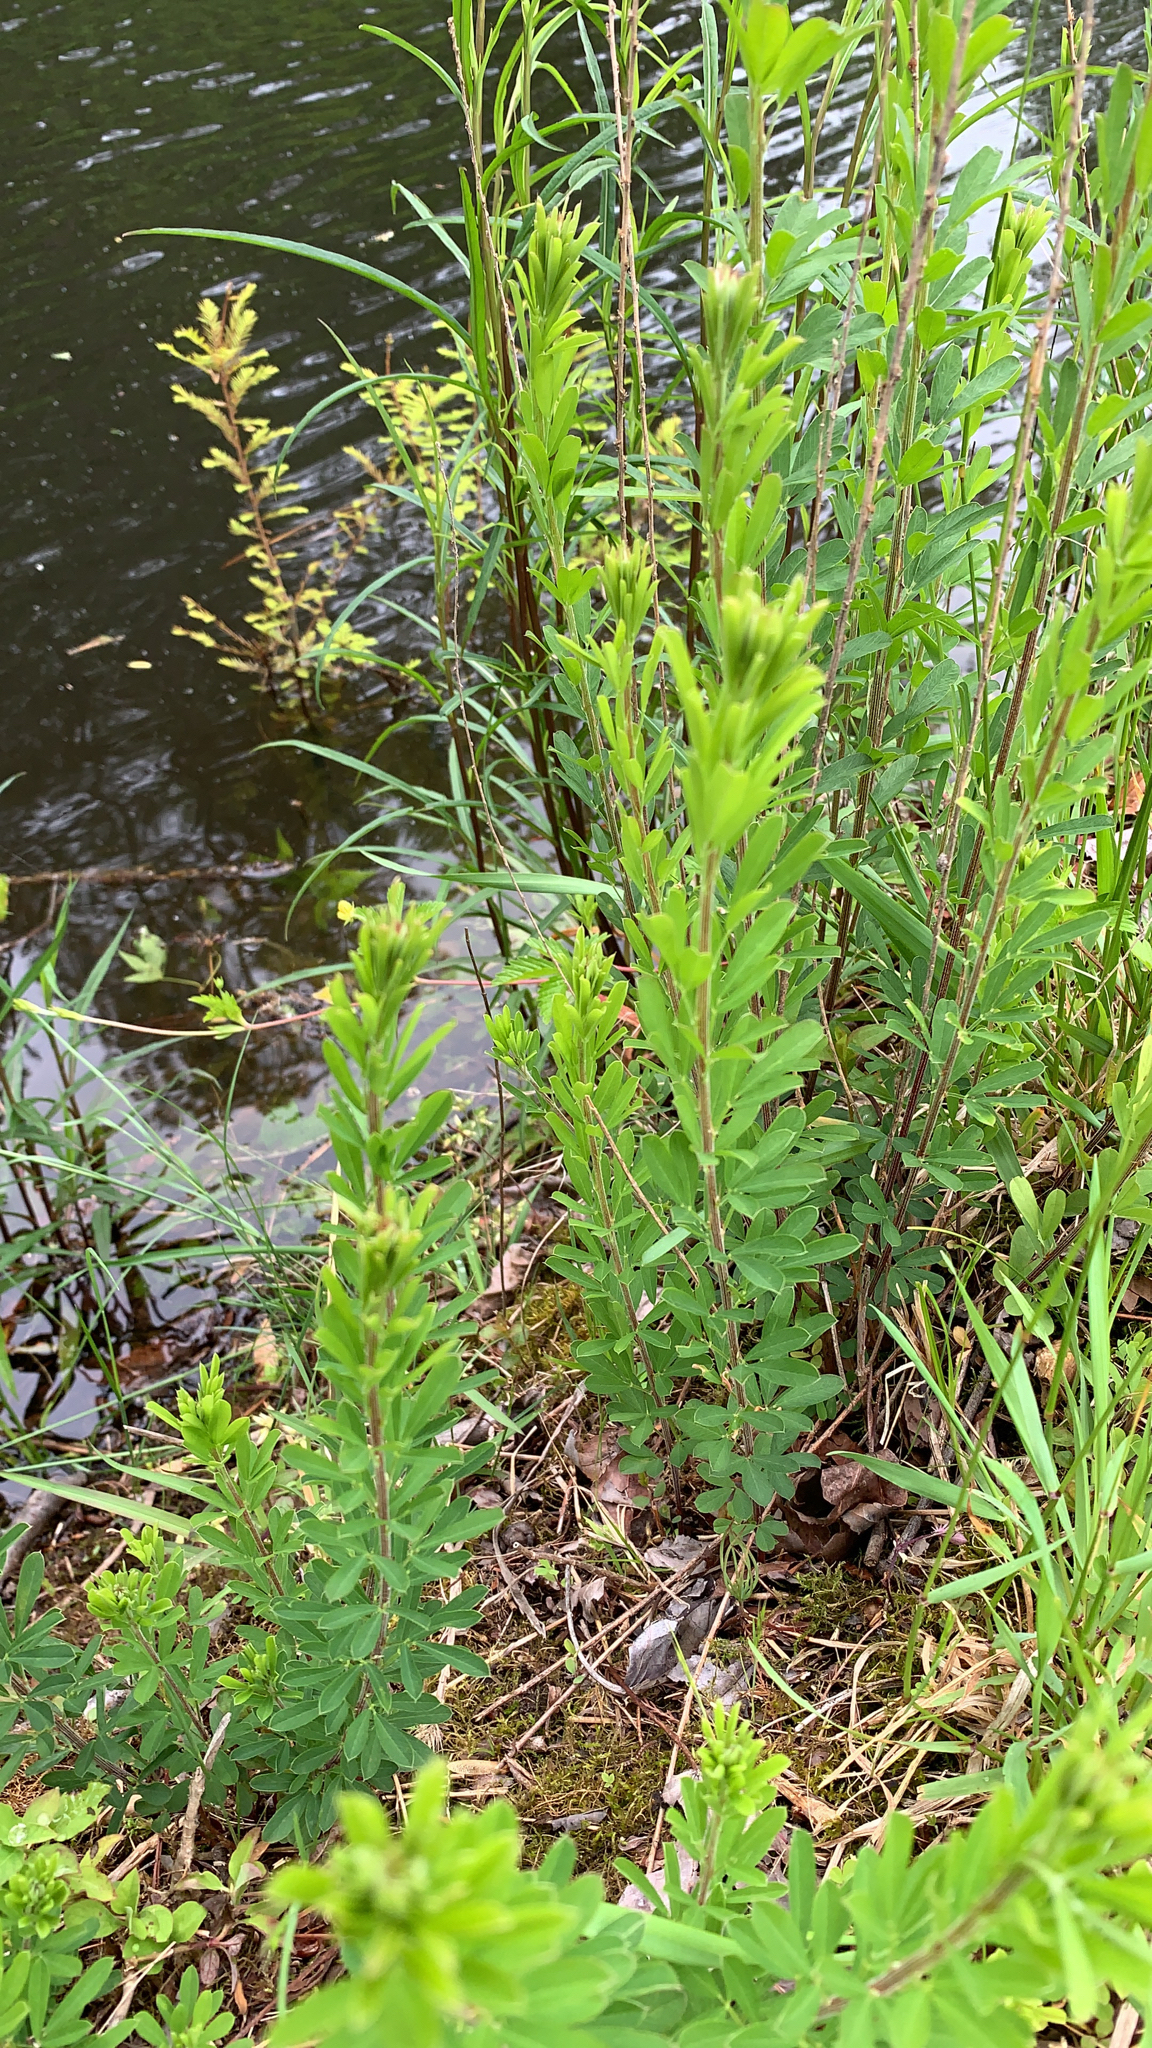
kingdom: Plantae
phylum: Tracheophyta
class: Magnoliopsida
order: Fabales
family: Fabaceae
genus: Lespedeza
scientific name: Lespedeza cuneata
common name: Chinese bush-clover
